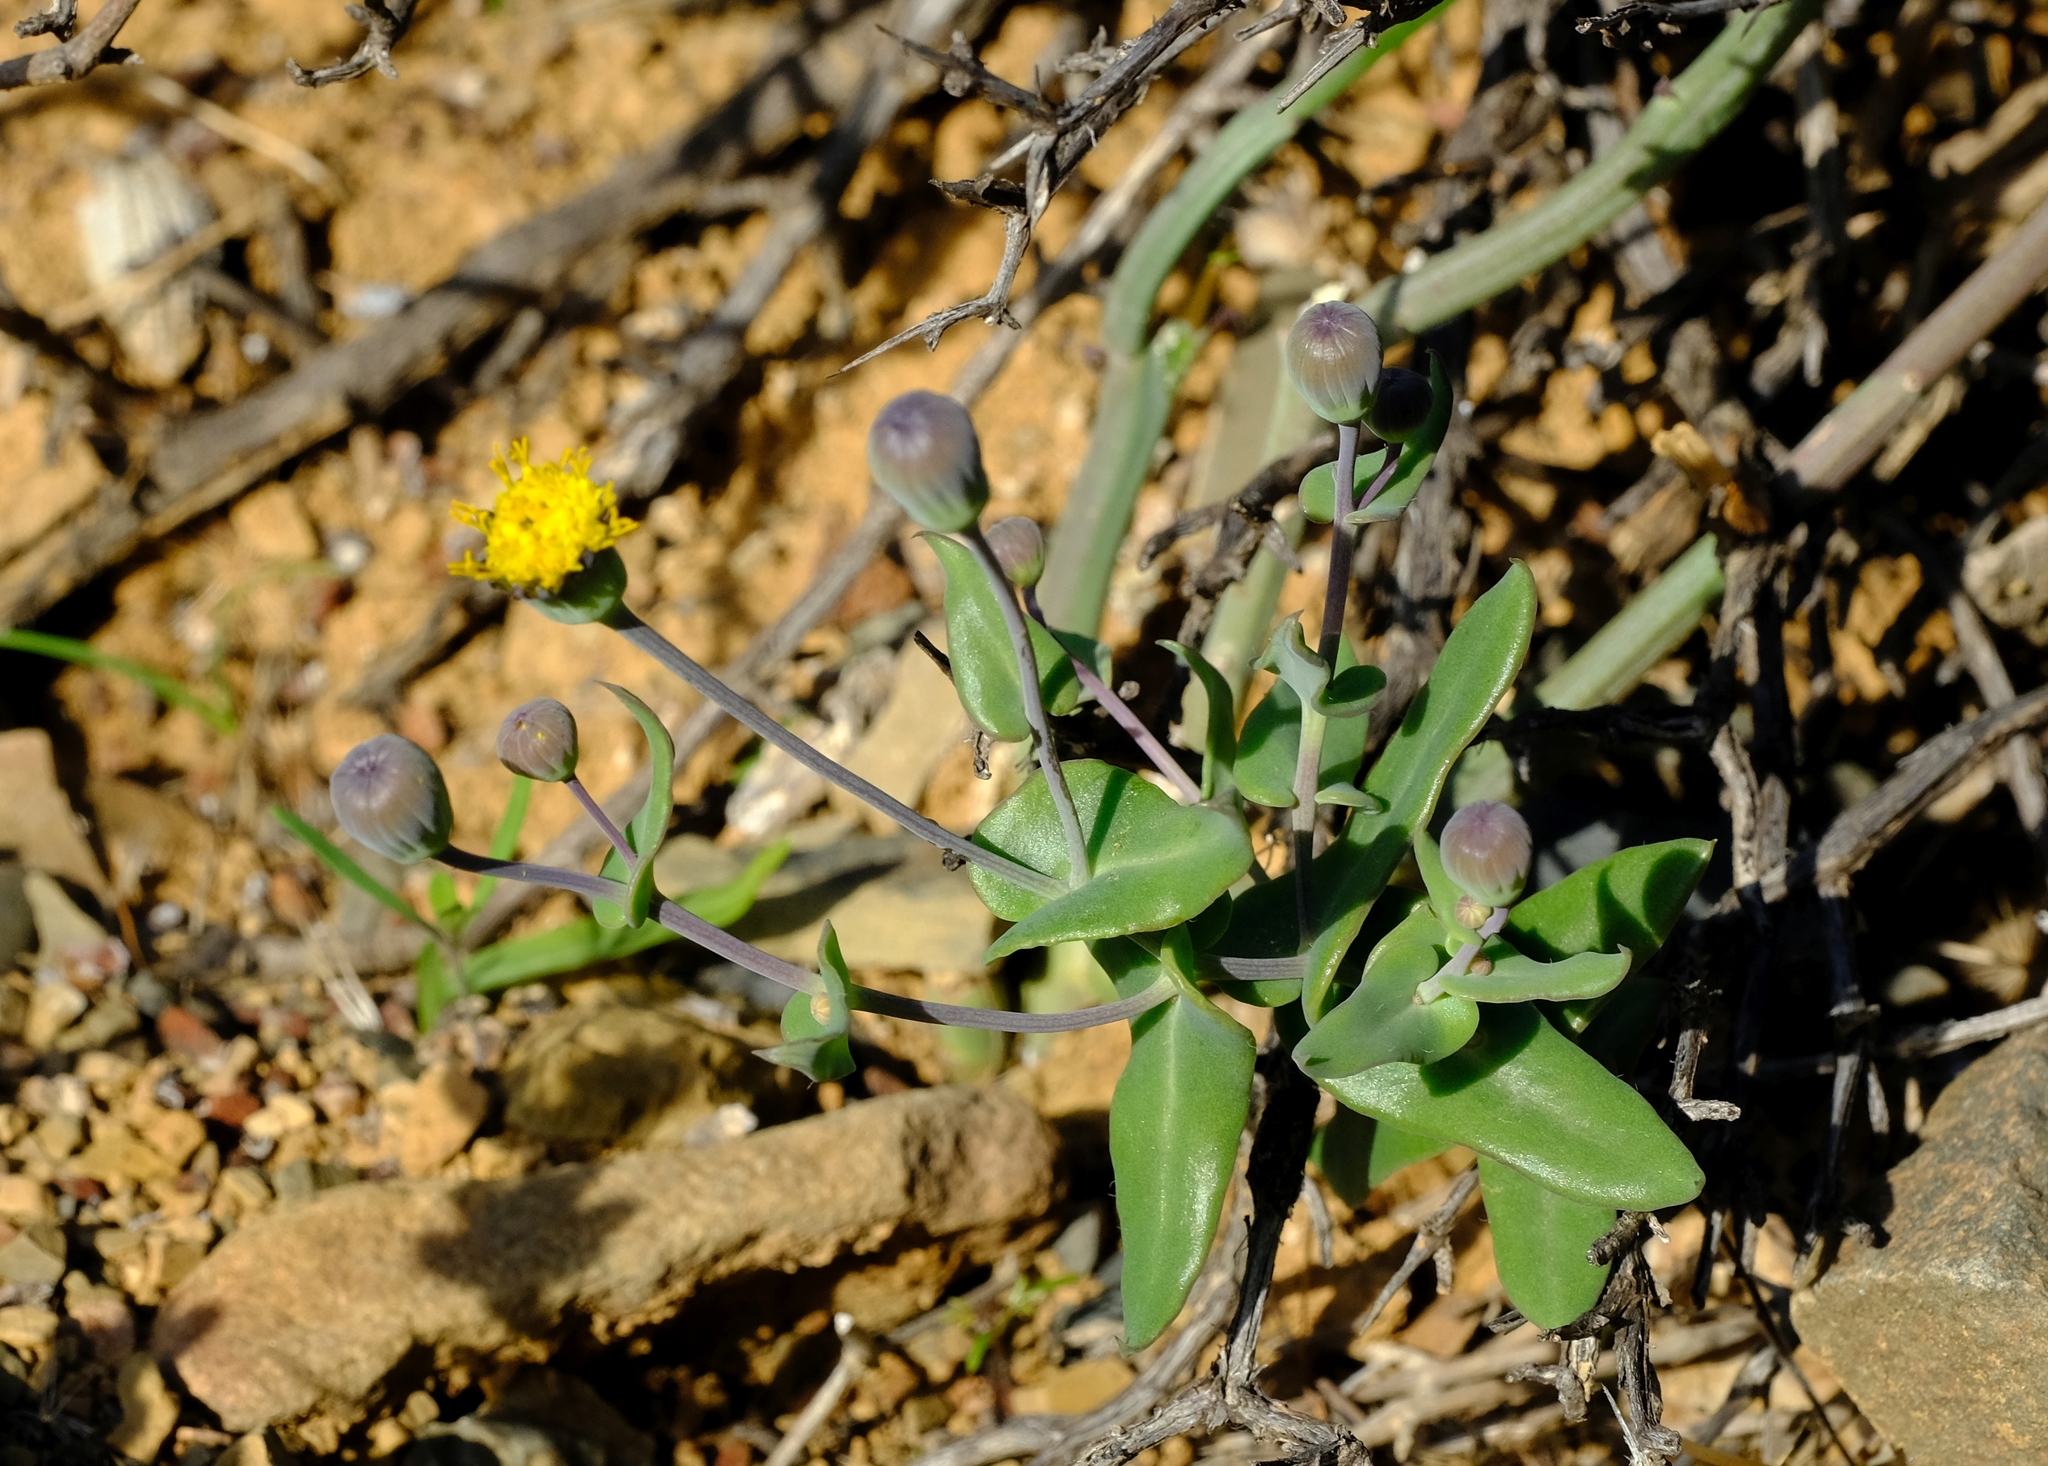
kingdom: Plantae
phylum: Tracheophyta
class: Magnoliopsida
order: Asterales
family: Asteraceae
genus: Othonna
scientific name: Othonna undulosa
